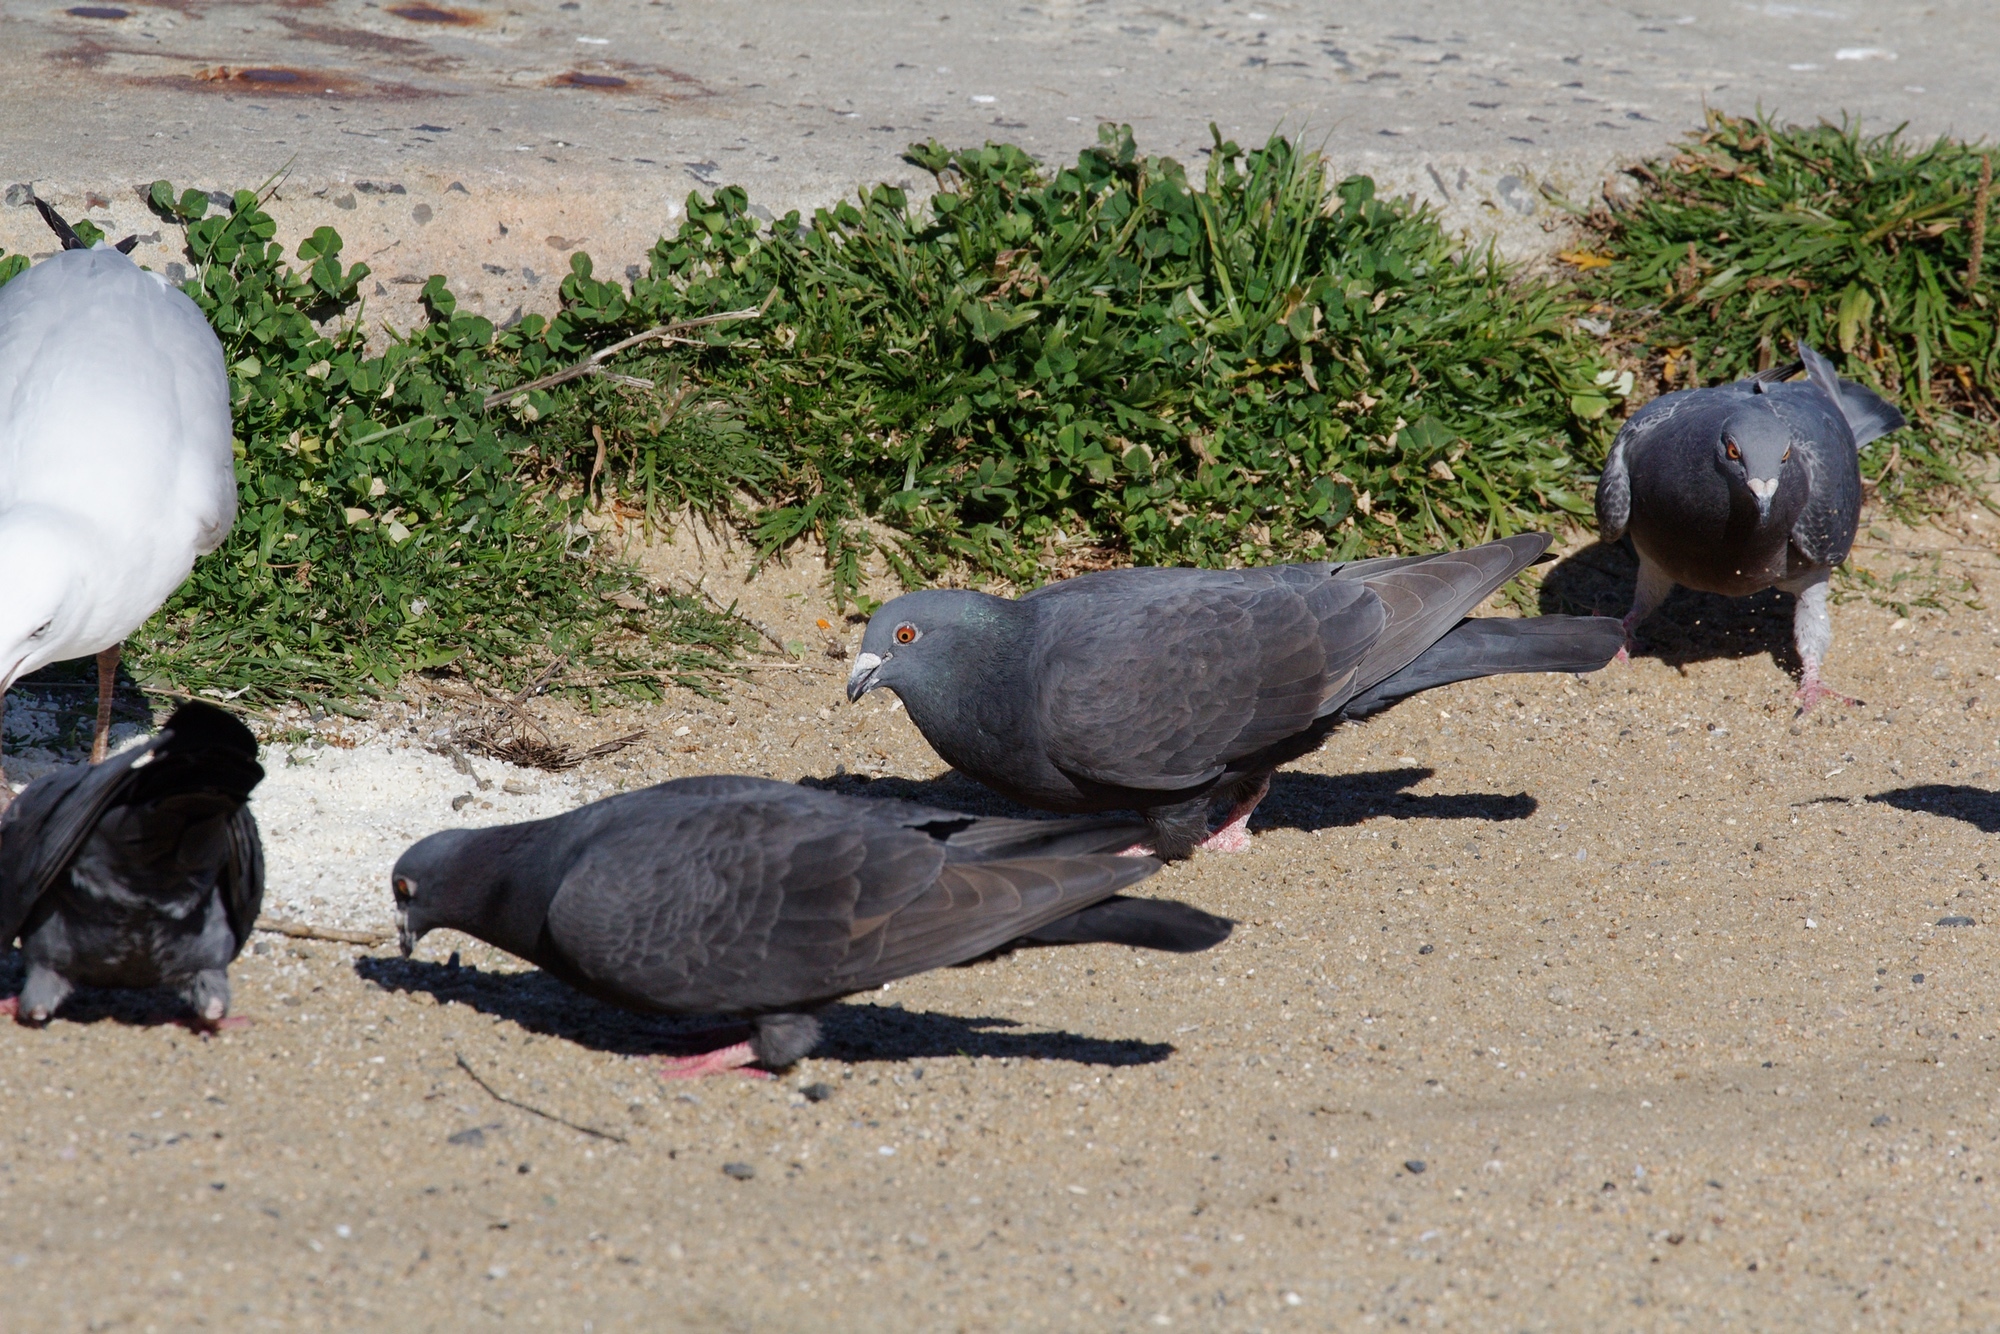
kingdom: Animalia
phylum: Chordata
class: Aves
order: Columbiformes
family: Columbidae
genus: Columba
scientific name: Columba livia
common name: Rock pigeon
